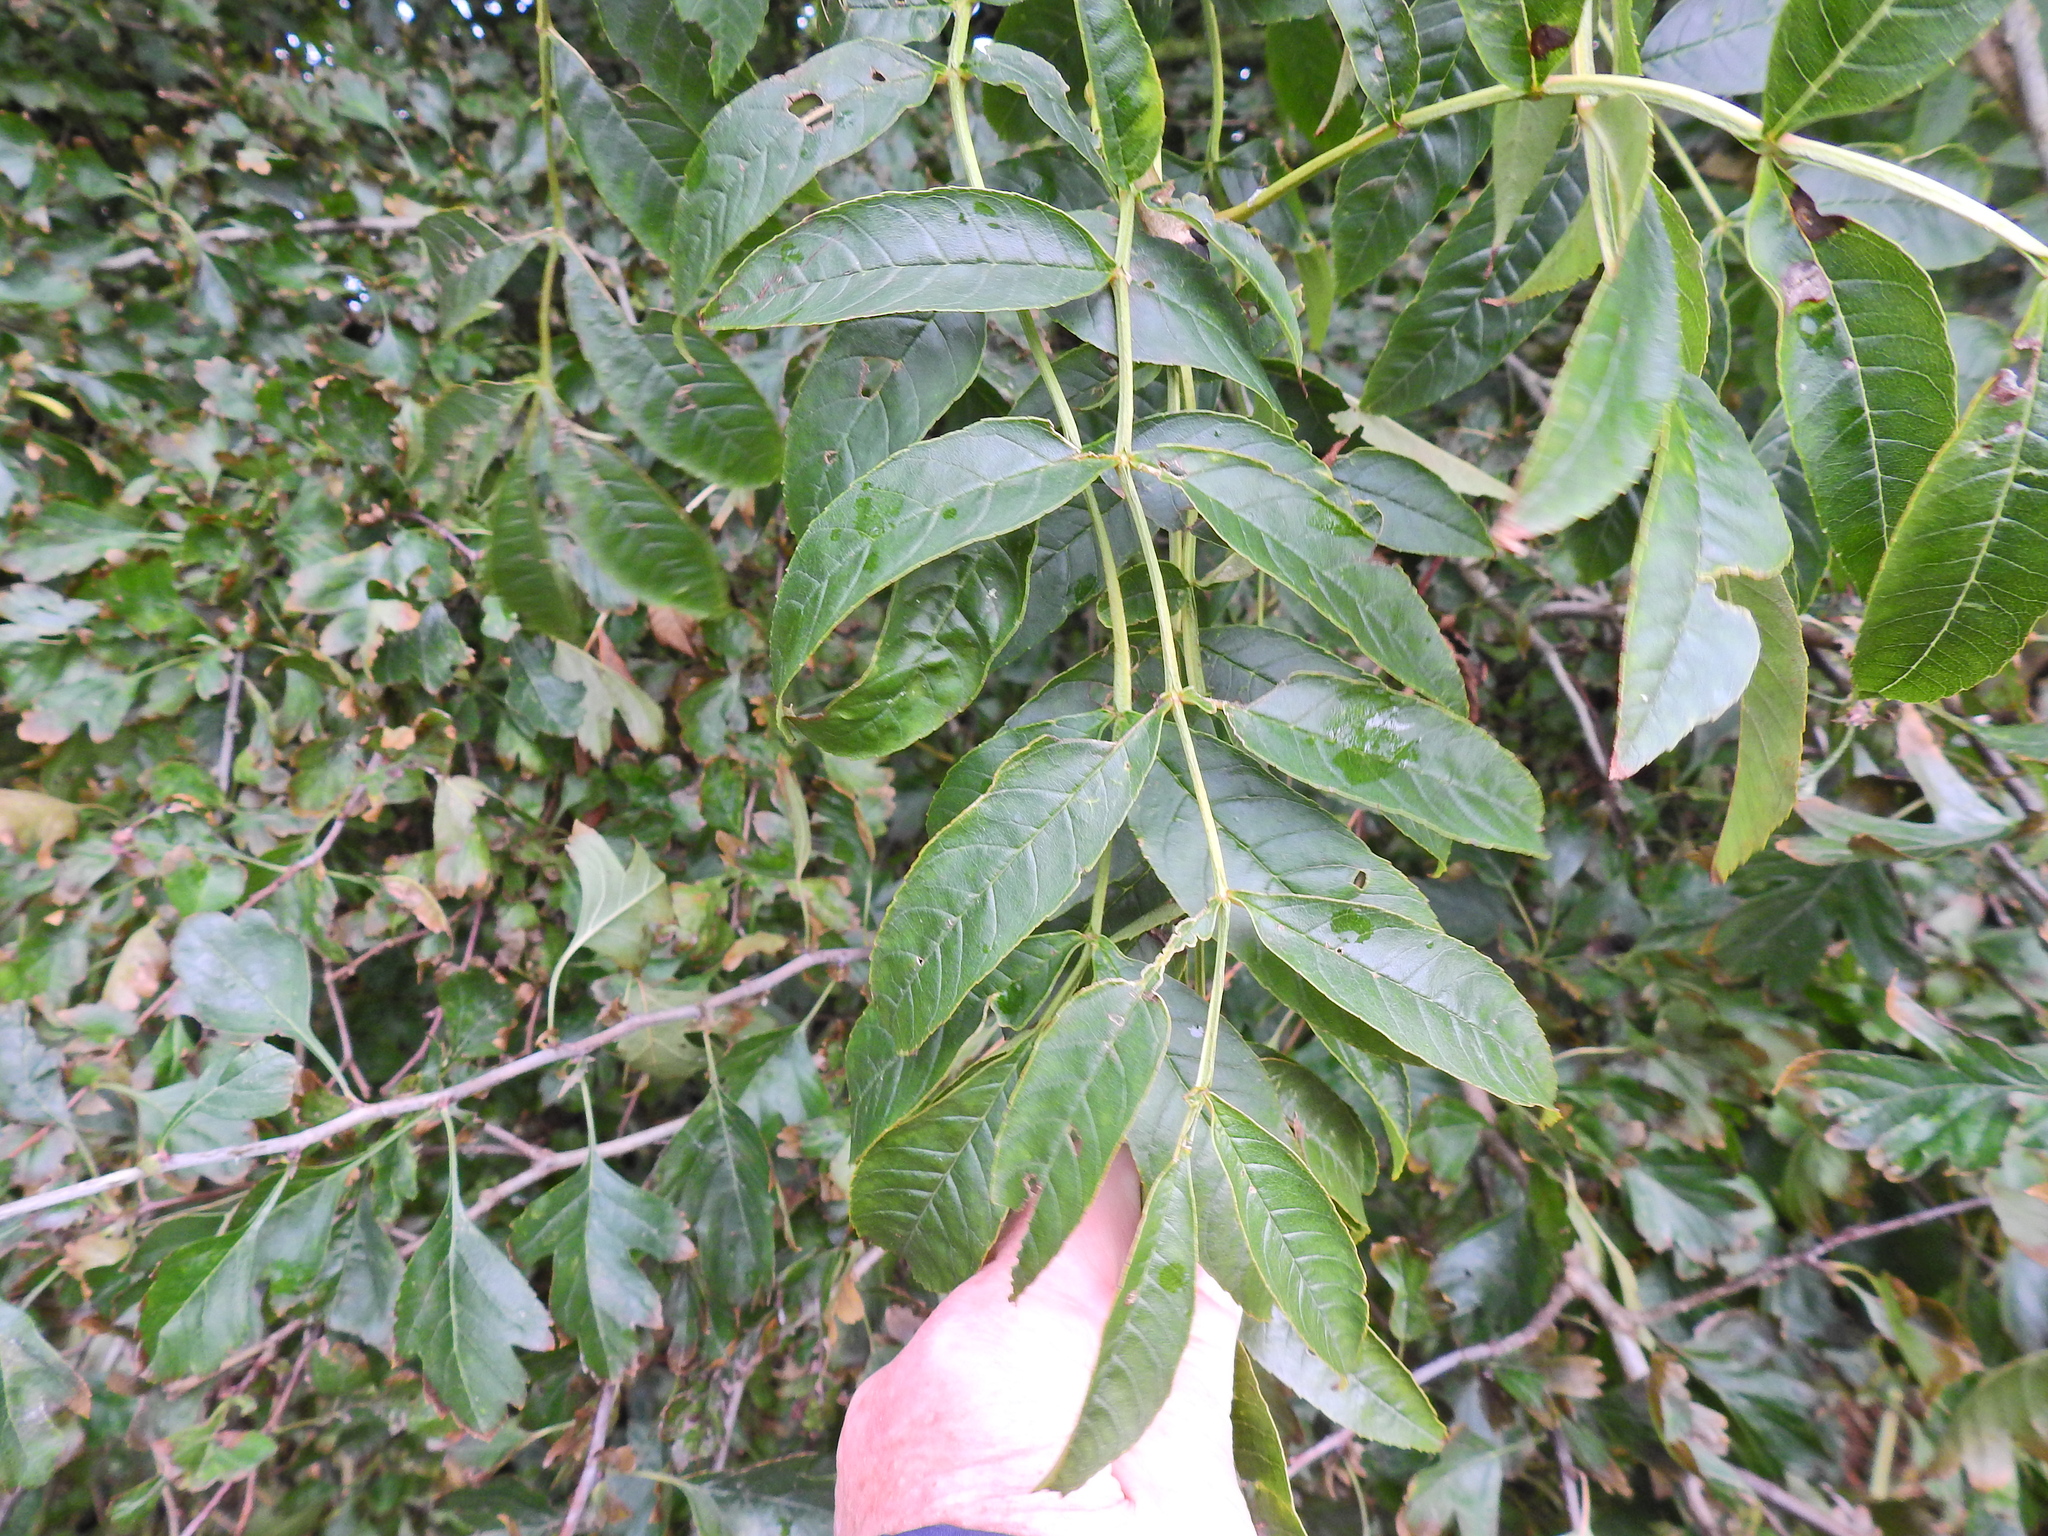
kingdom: Plantae
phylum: Tracheophyta
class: Magnoliopsida
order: Lamiales
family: Oleaceae
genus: Fraxinus
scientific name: Fraxinus excelsior
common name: European ash
